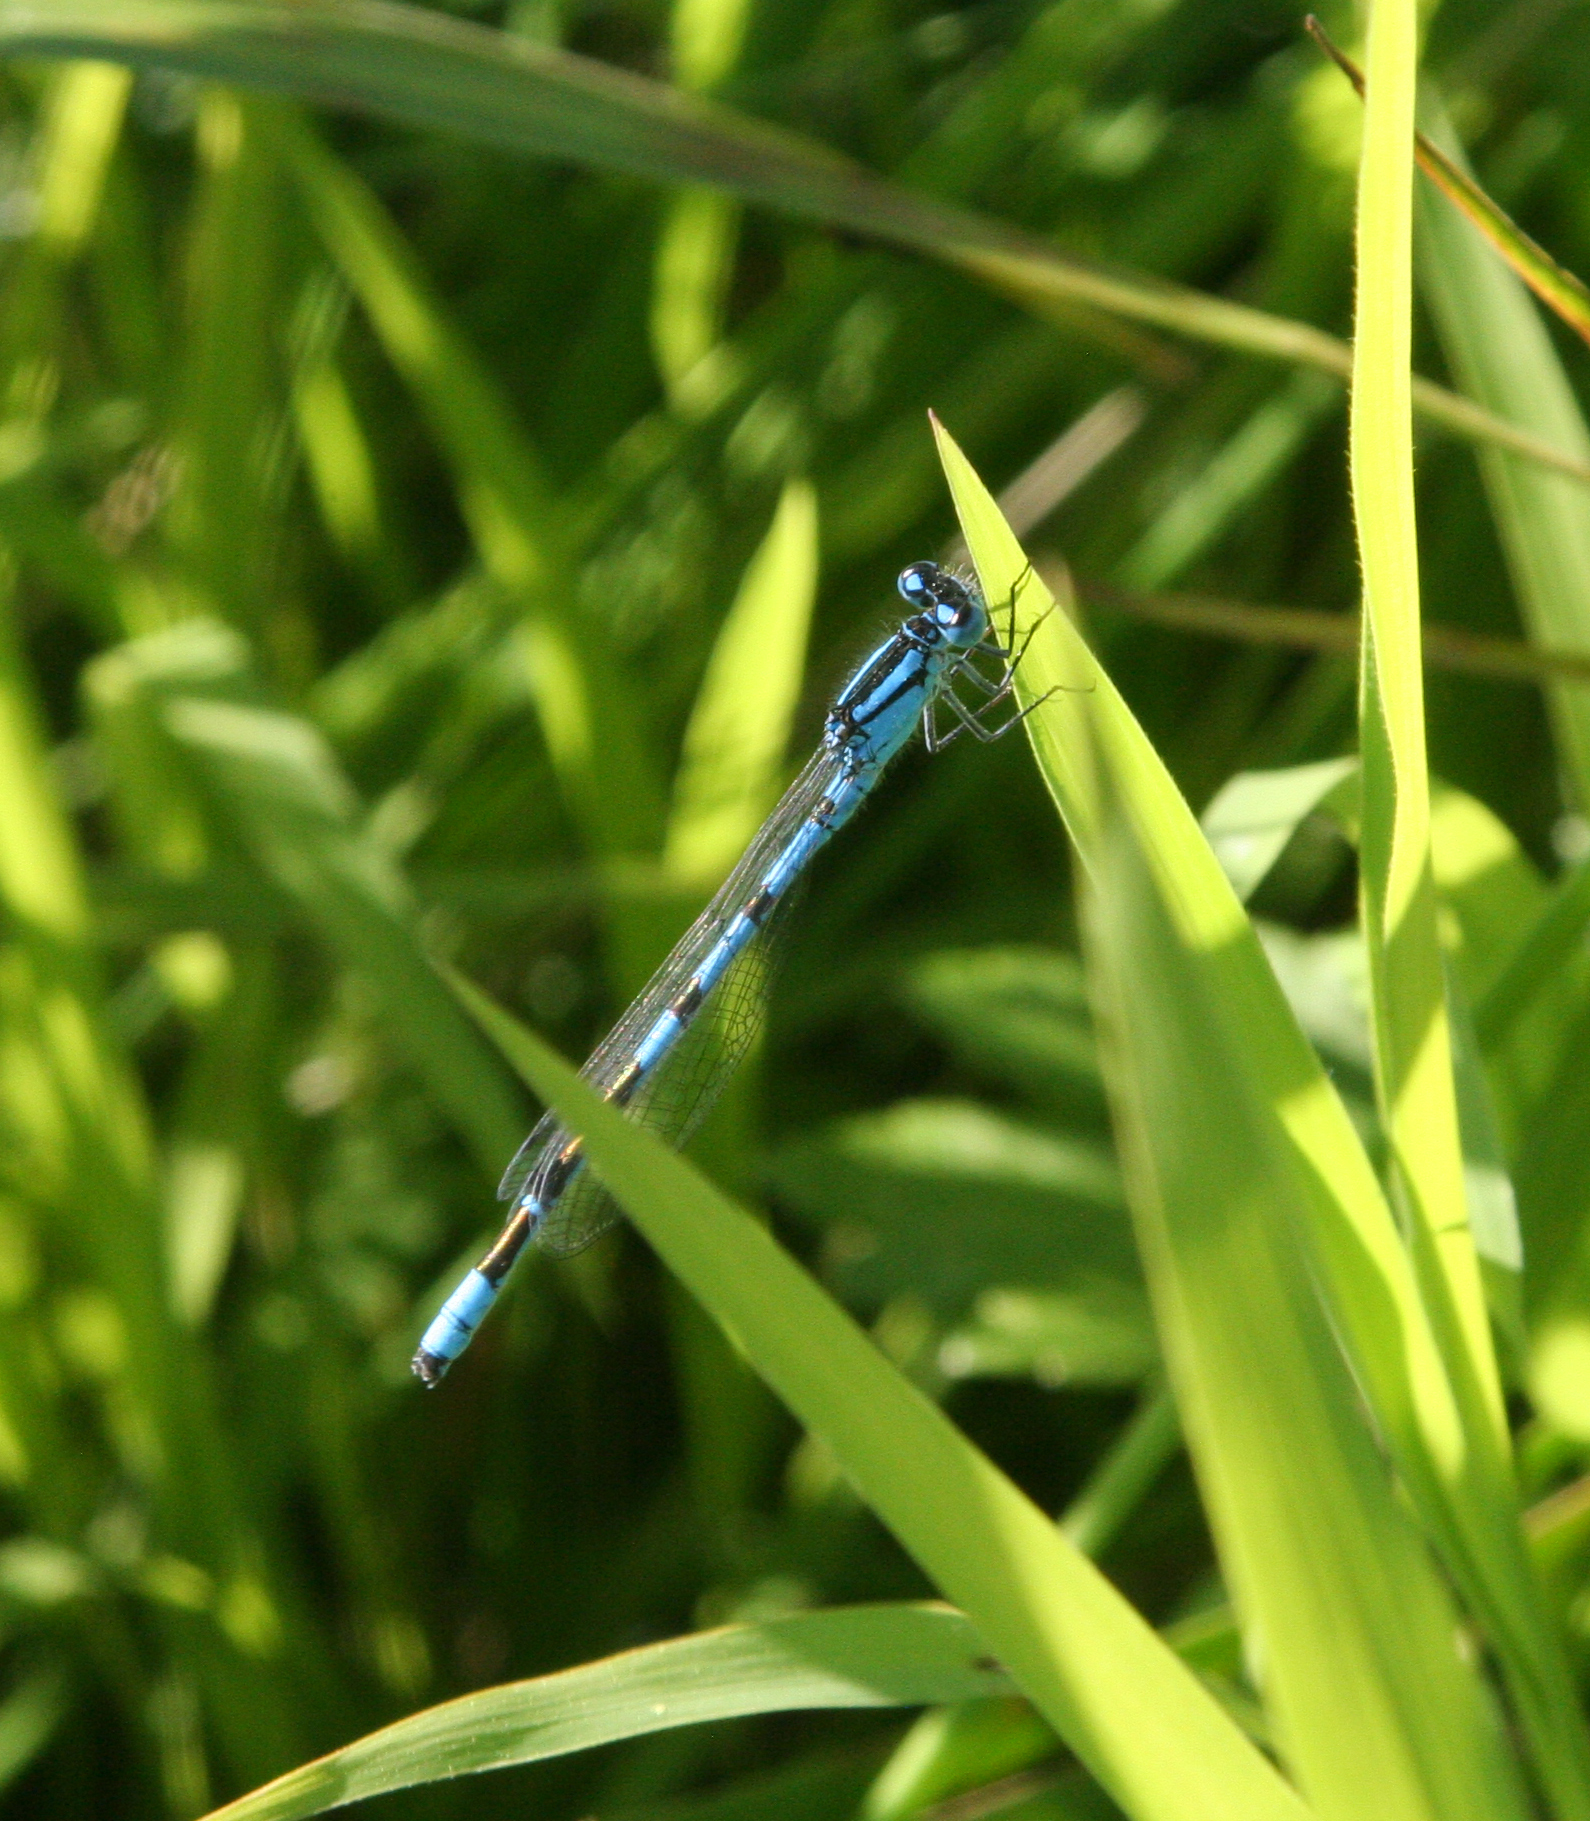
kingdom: Animalia
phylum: Arthropoda
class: Insecta
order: Odonata
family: Coenagrionidae
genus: Enallagma
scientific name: Enallagma cyathigerum
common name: Common blue damselfly
